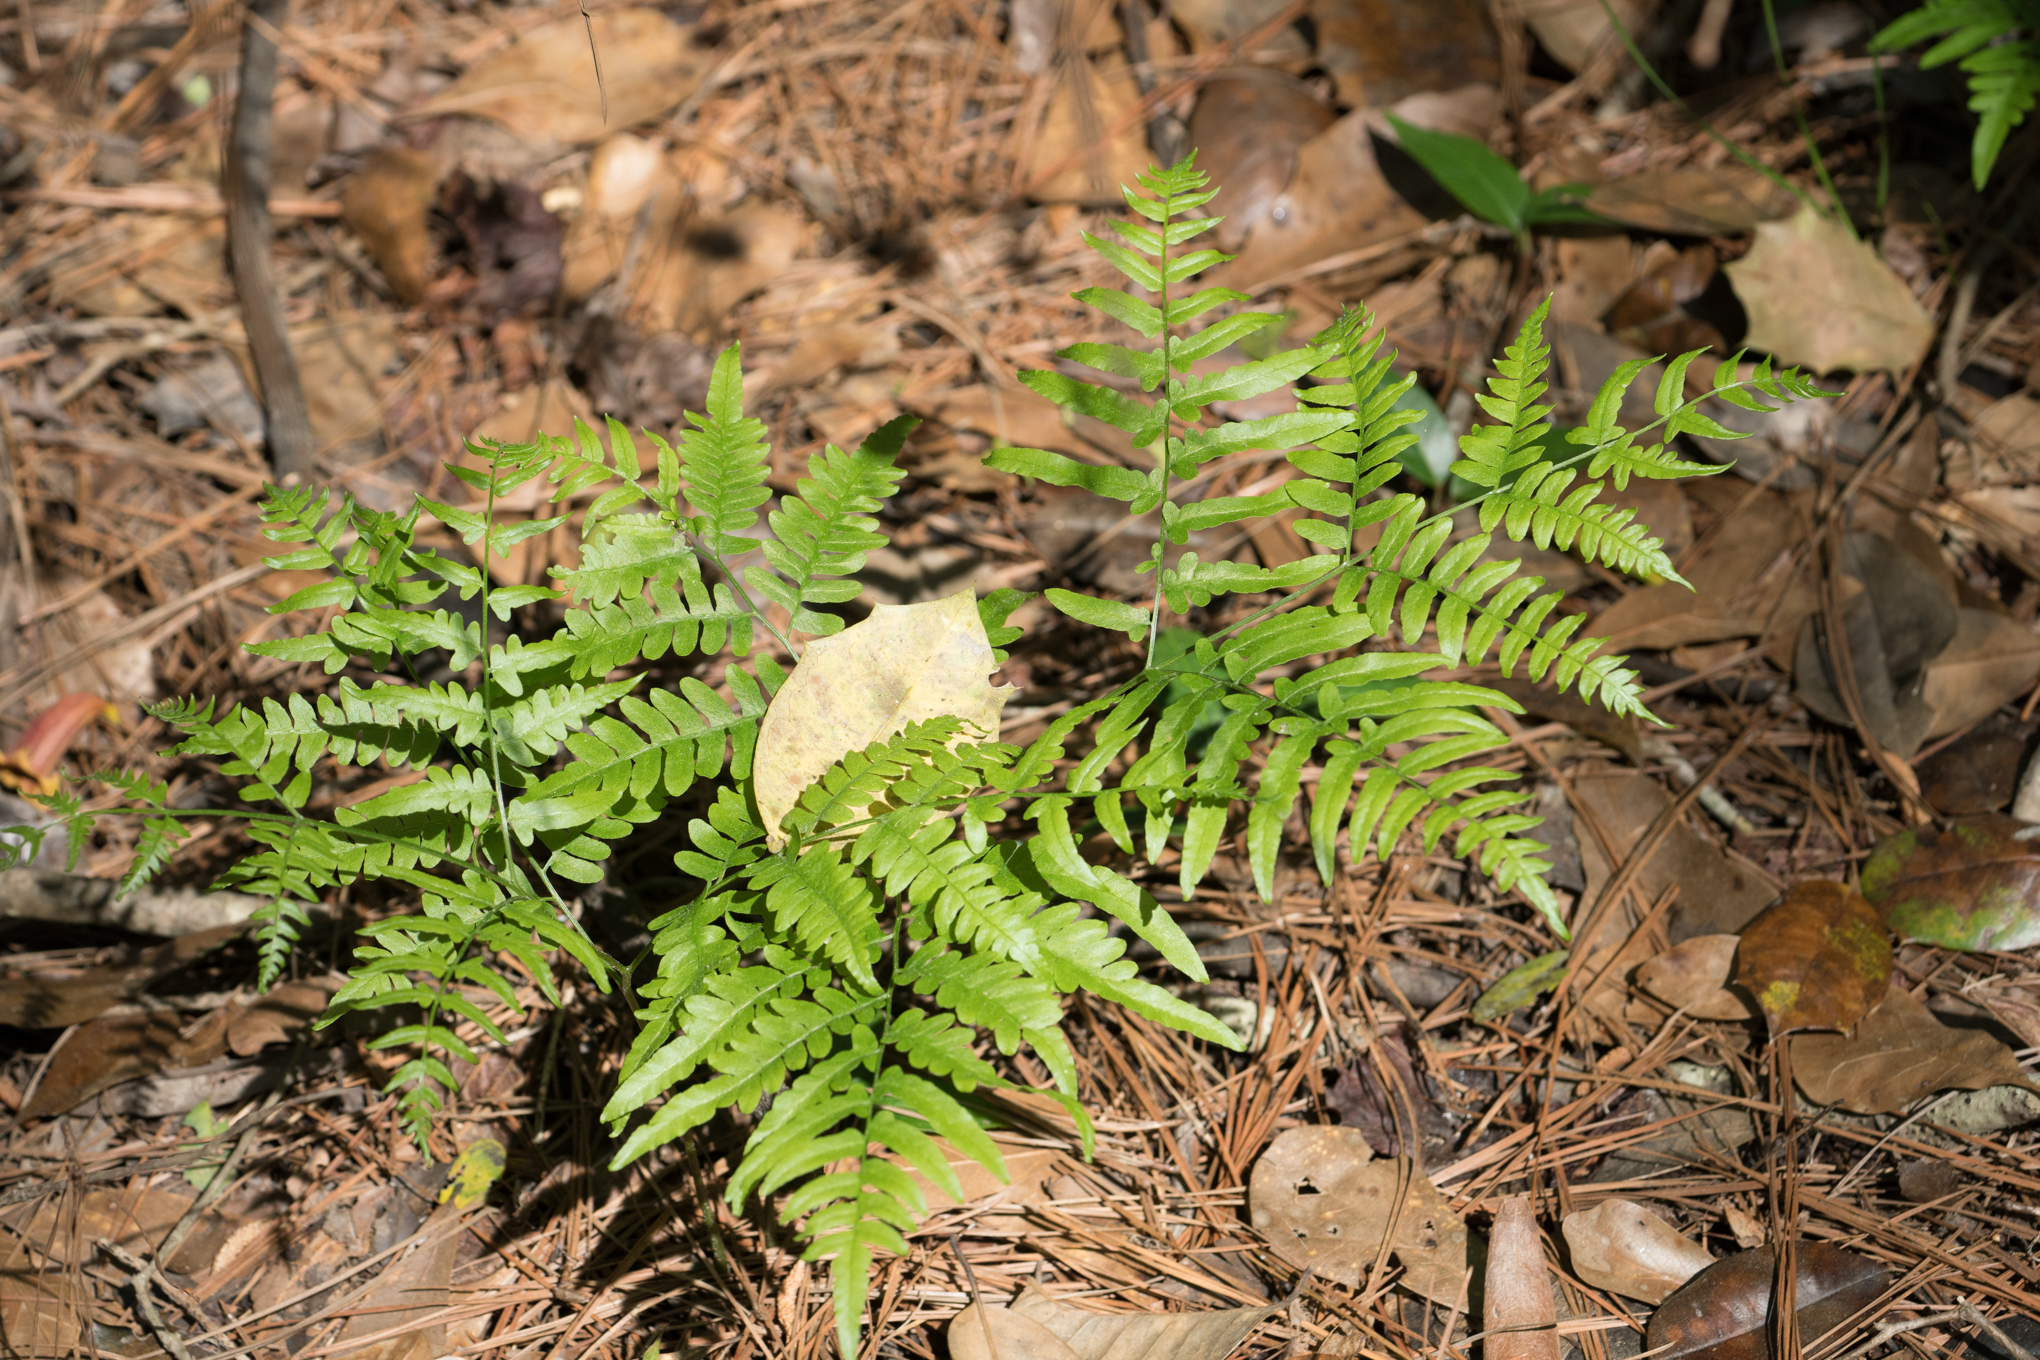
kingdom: Plantae
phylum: Tracheophyta
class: Polypodiopsida
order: Polypodiales
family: Dennstaedtiaceae
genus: Pteridium
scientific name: Pteridium aquilinum
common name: Bracken
